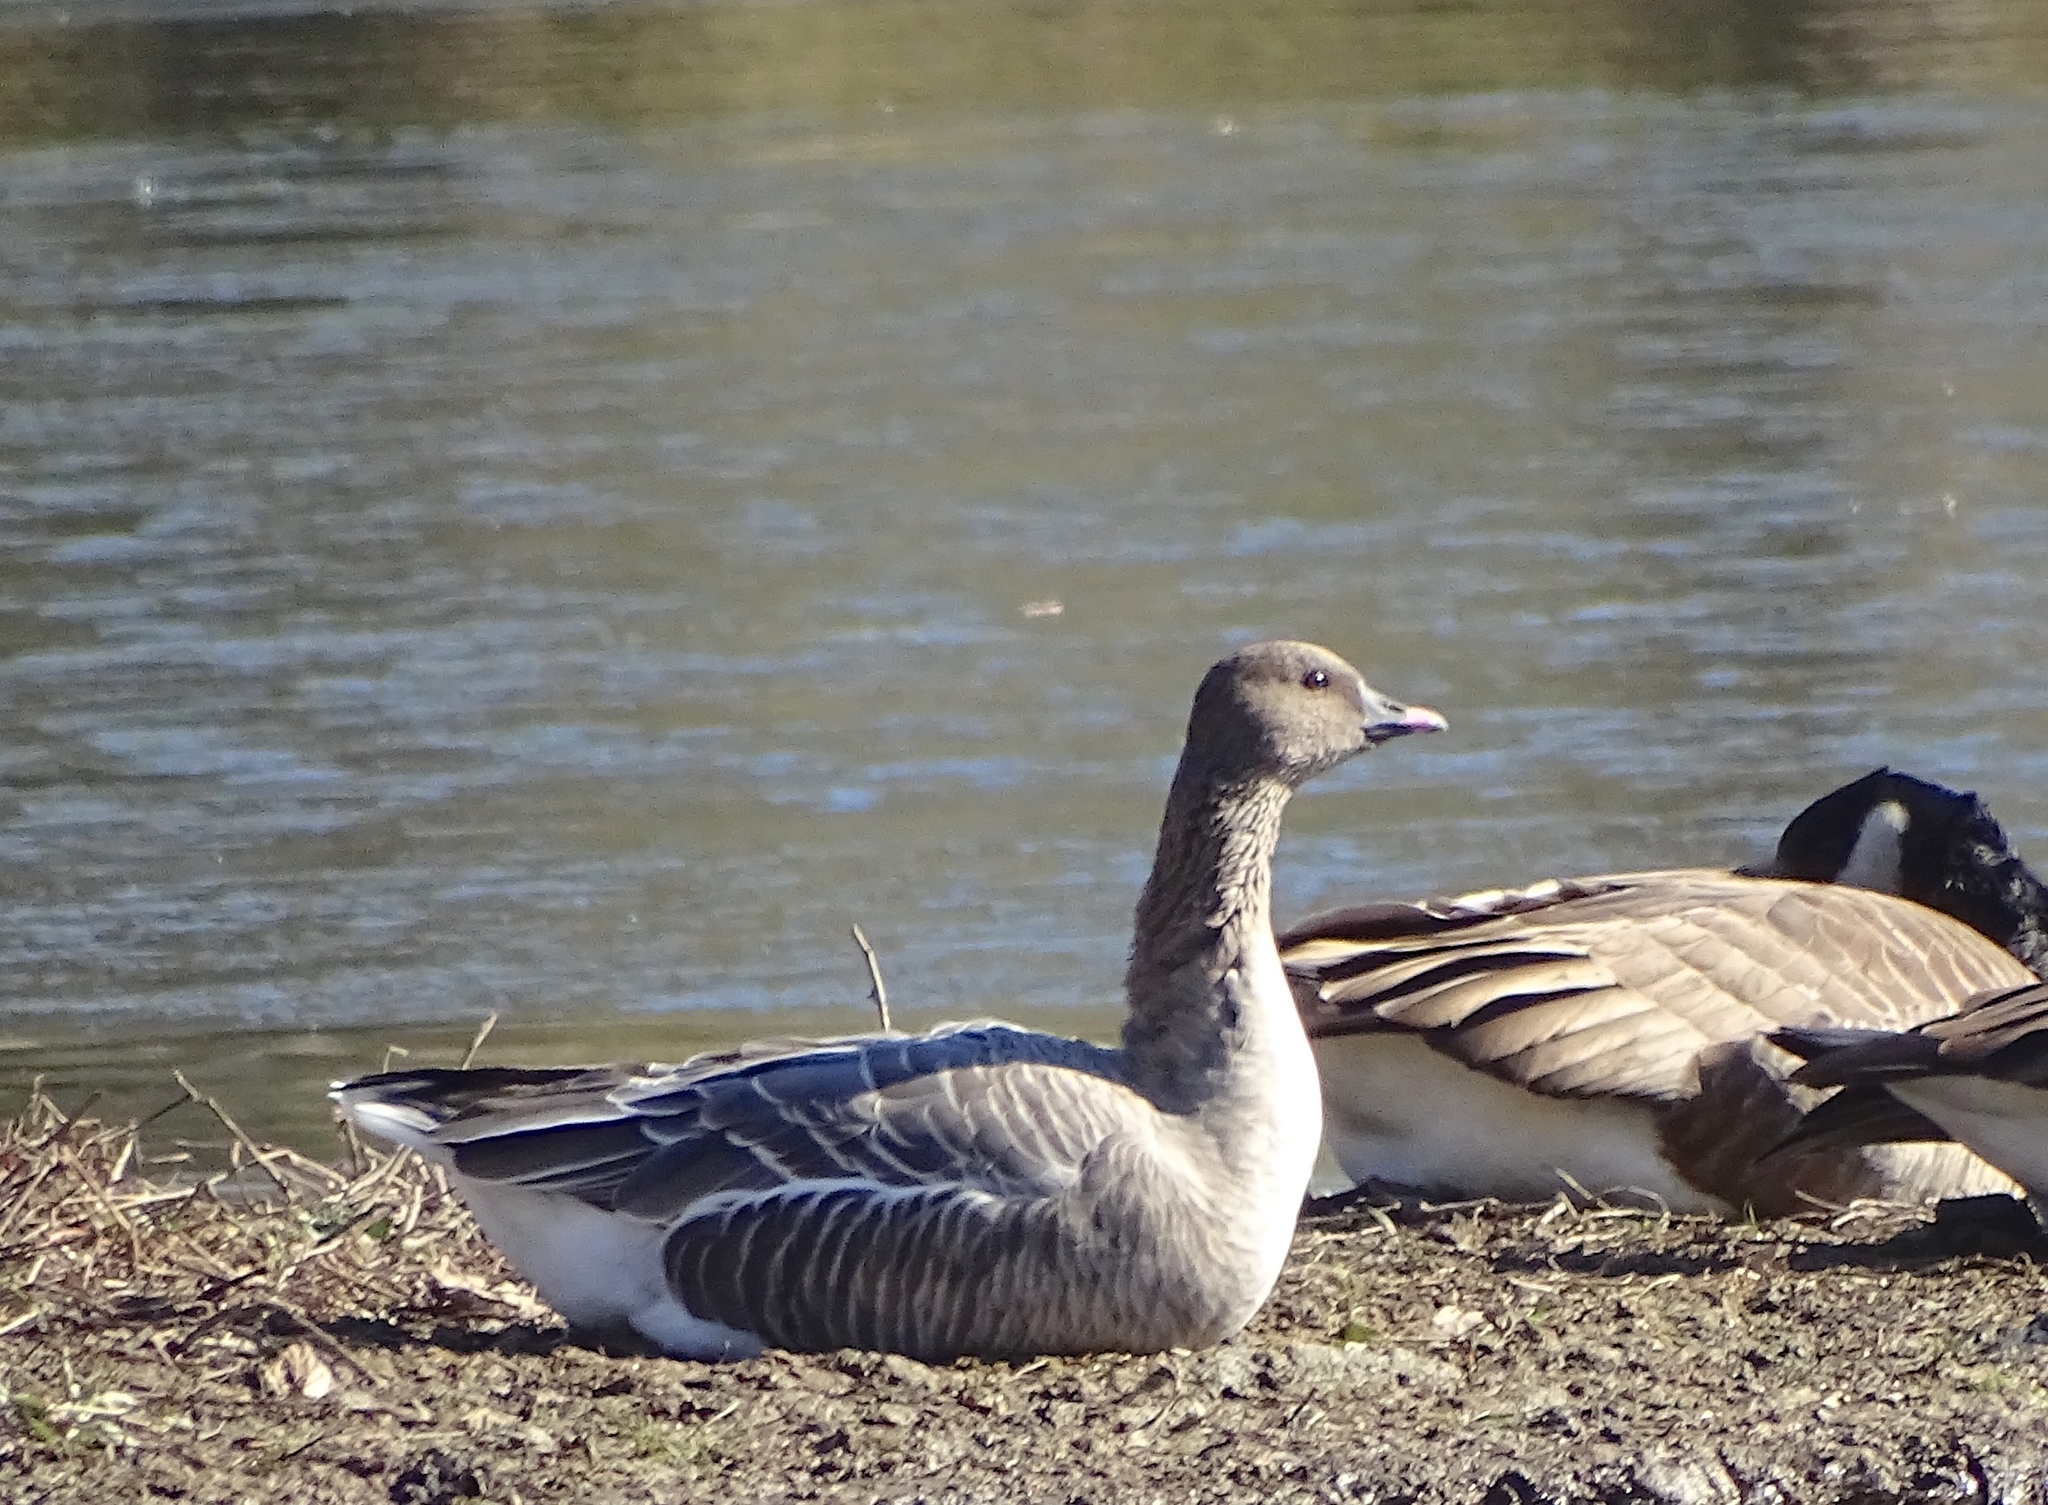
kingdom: Animalia
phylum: Chordata
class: Aves
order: Anseriformes
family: Anatidae
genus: Anser
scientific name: Anser brachyrhynchus
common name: Pink-footed goose
